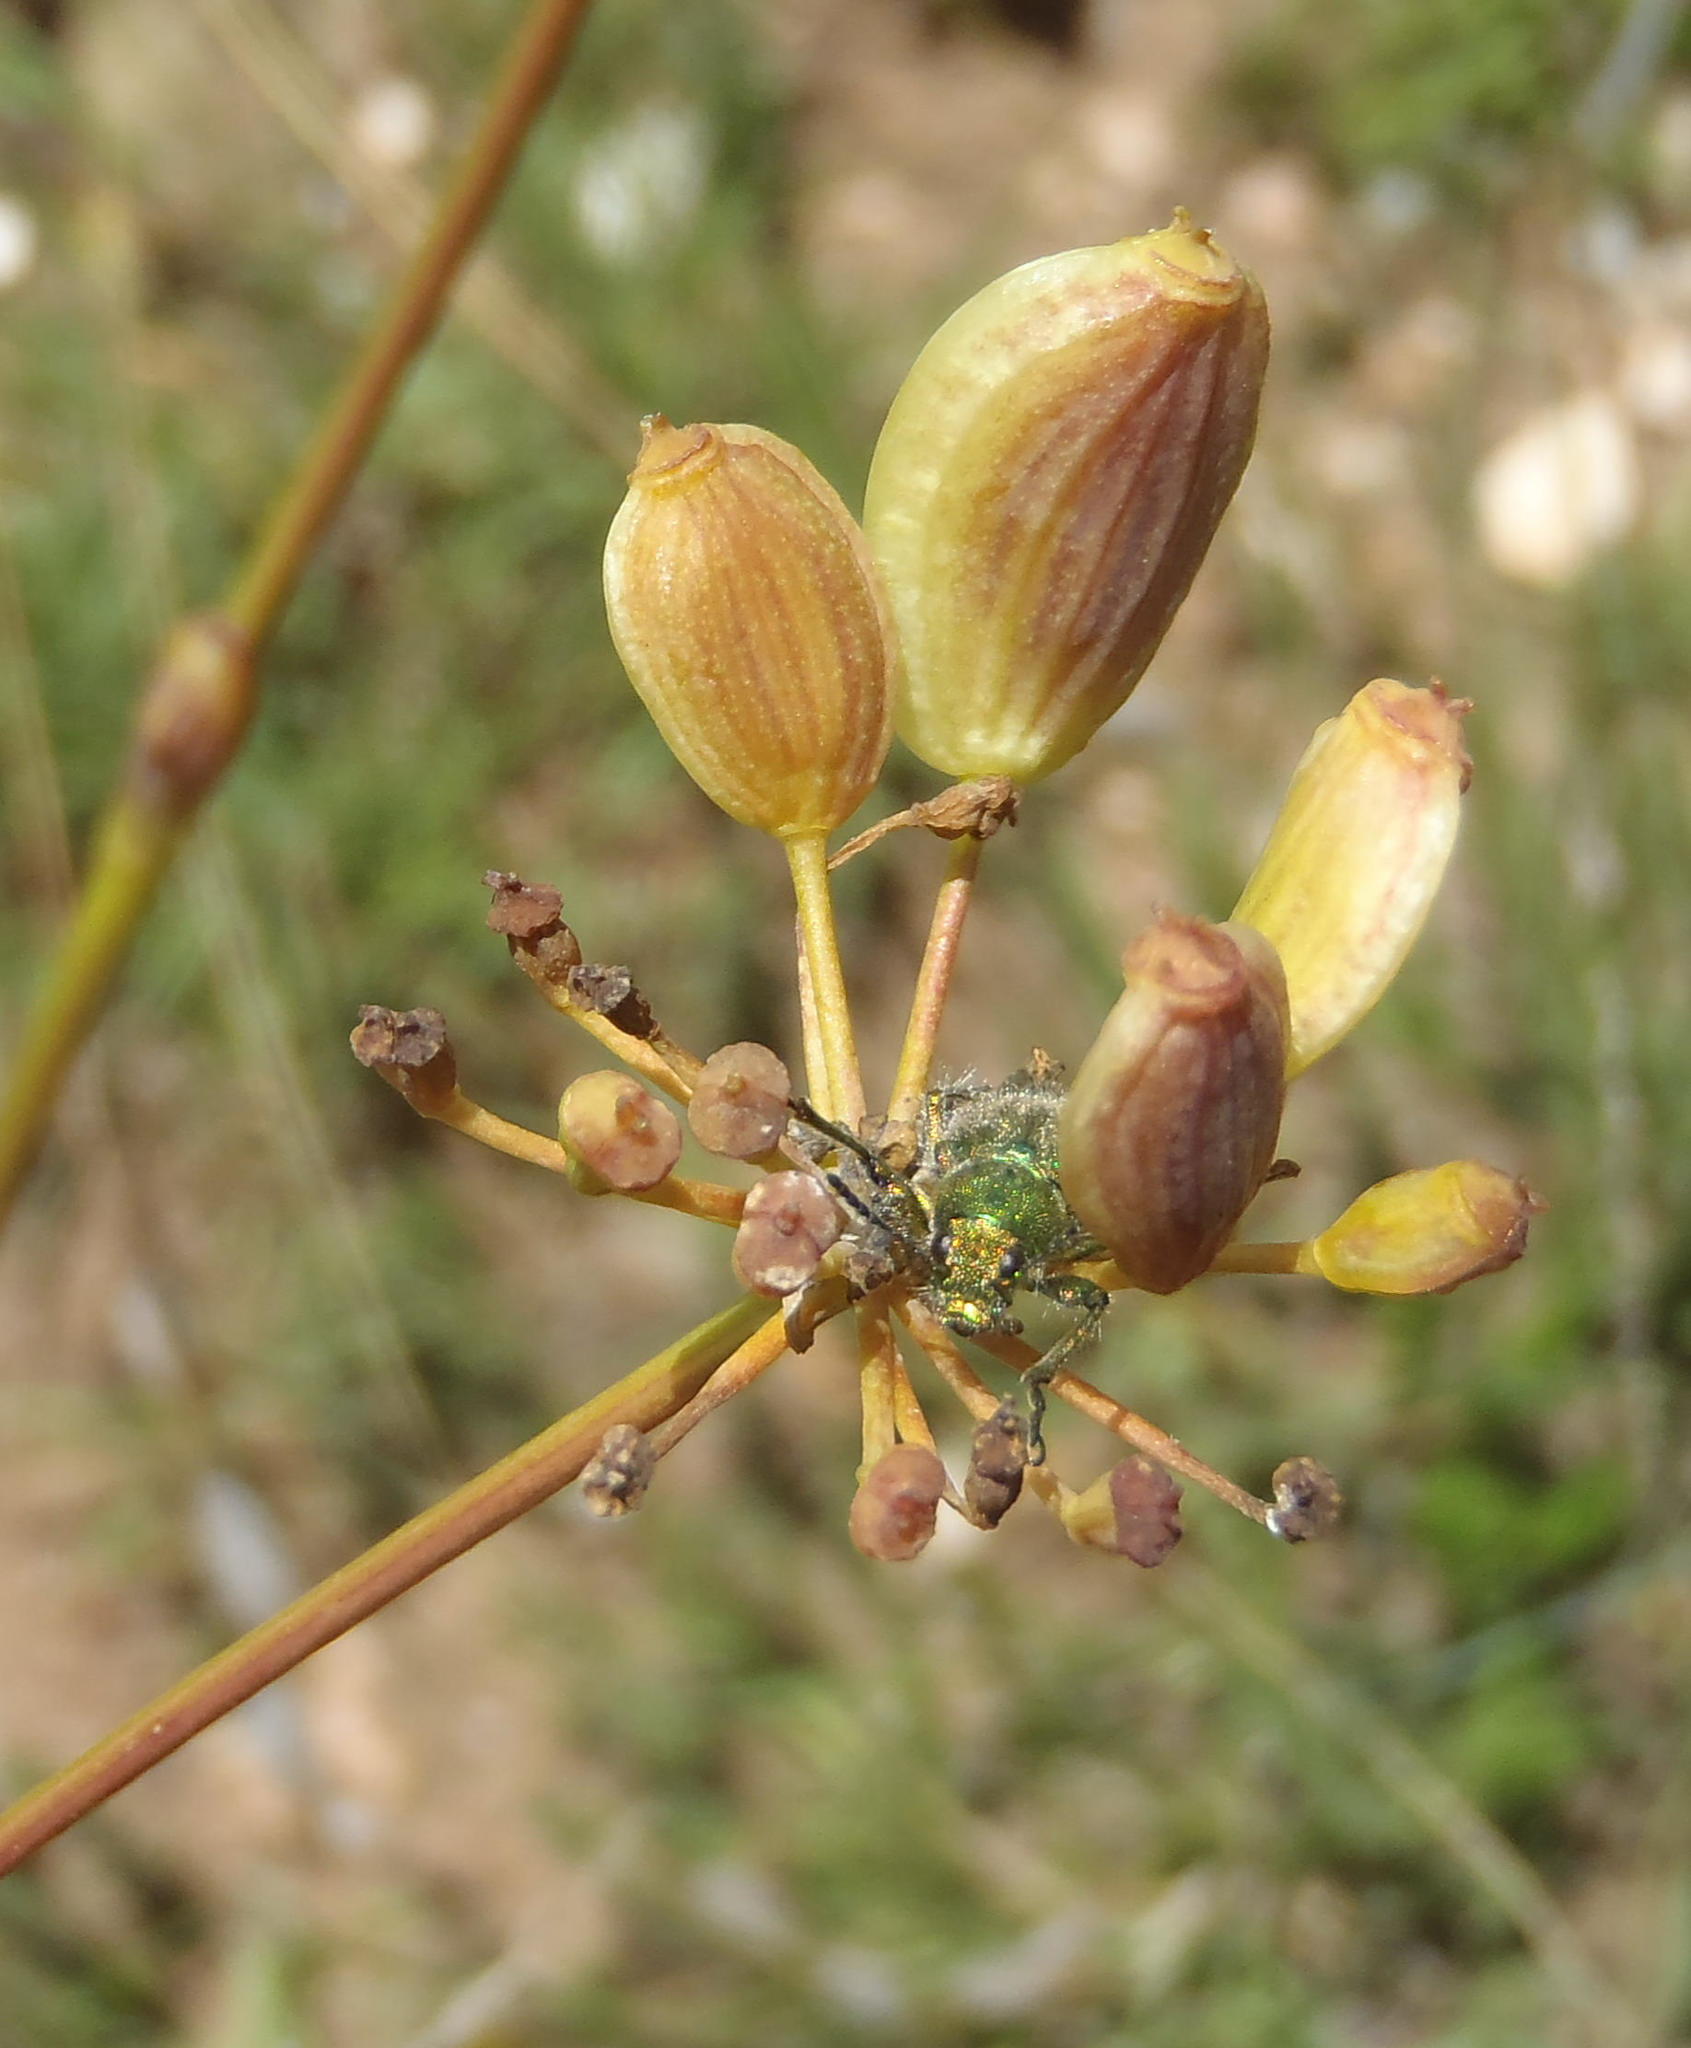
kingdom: Plantae
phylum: Tracheophyta
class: Magnoliopsida
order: Apiales
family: Apiaceae
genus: Afrosciadium
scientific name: Afrosciadium magalismontanum
